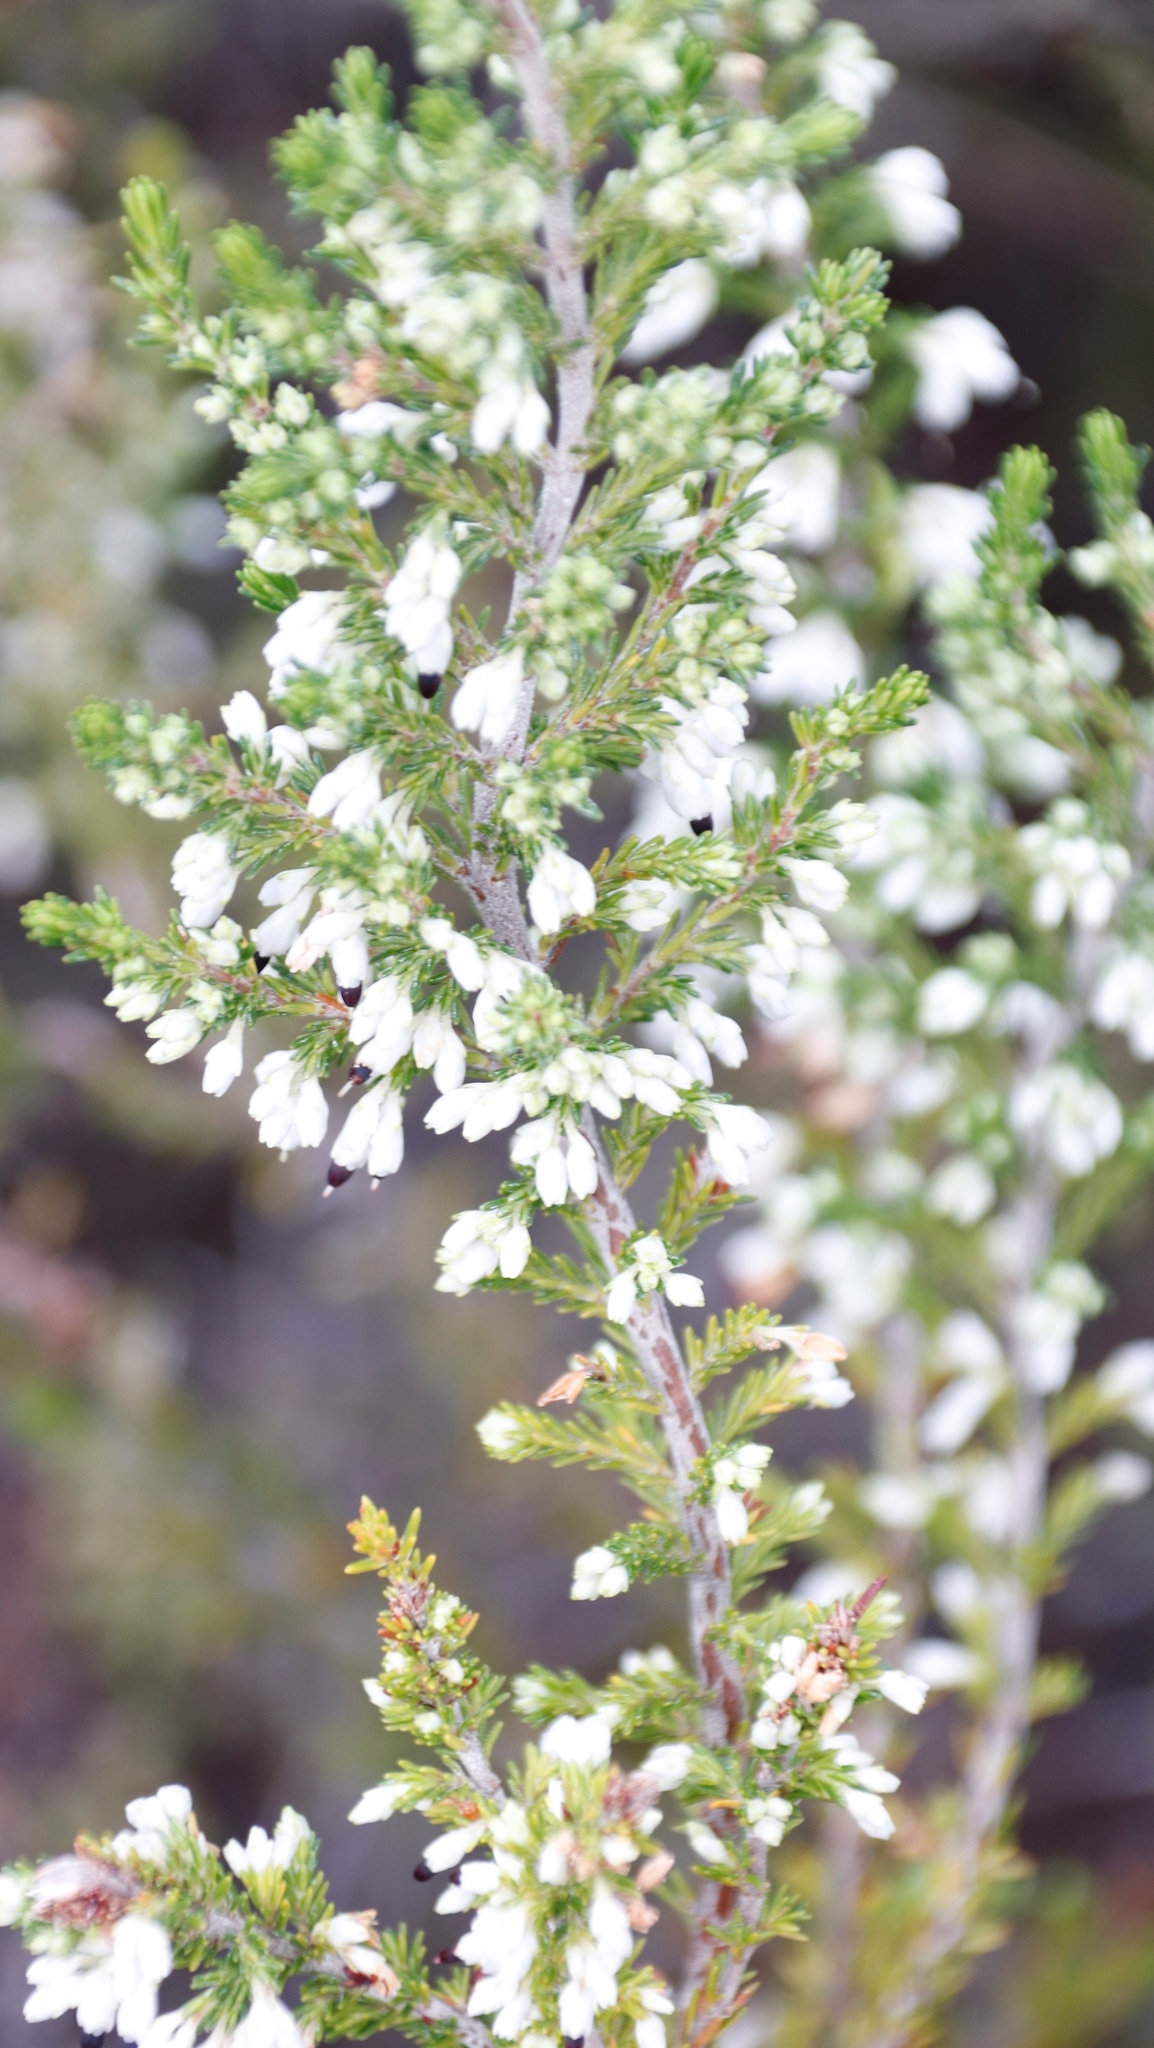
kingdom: Plantae
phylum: Tracheophyta
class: Magnoliopsida
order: Ericales
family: Ericaceae
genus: Erica
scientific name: Erica imbricata
